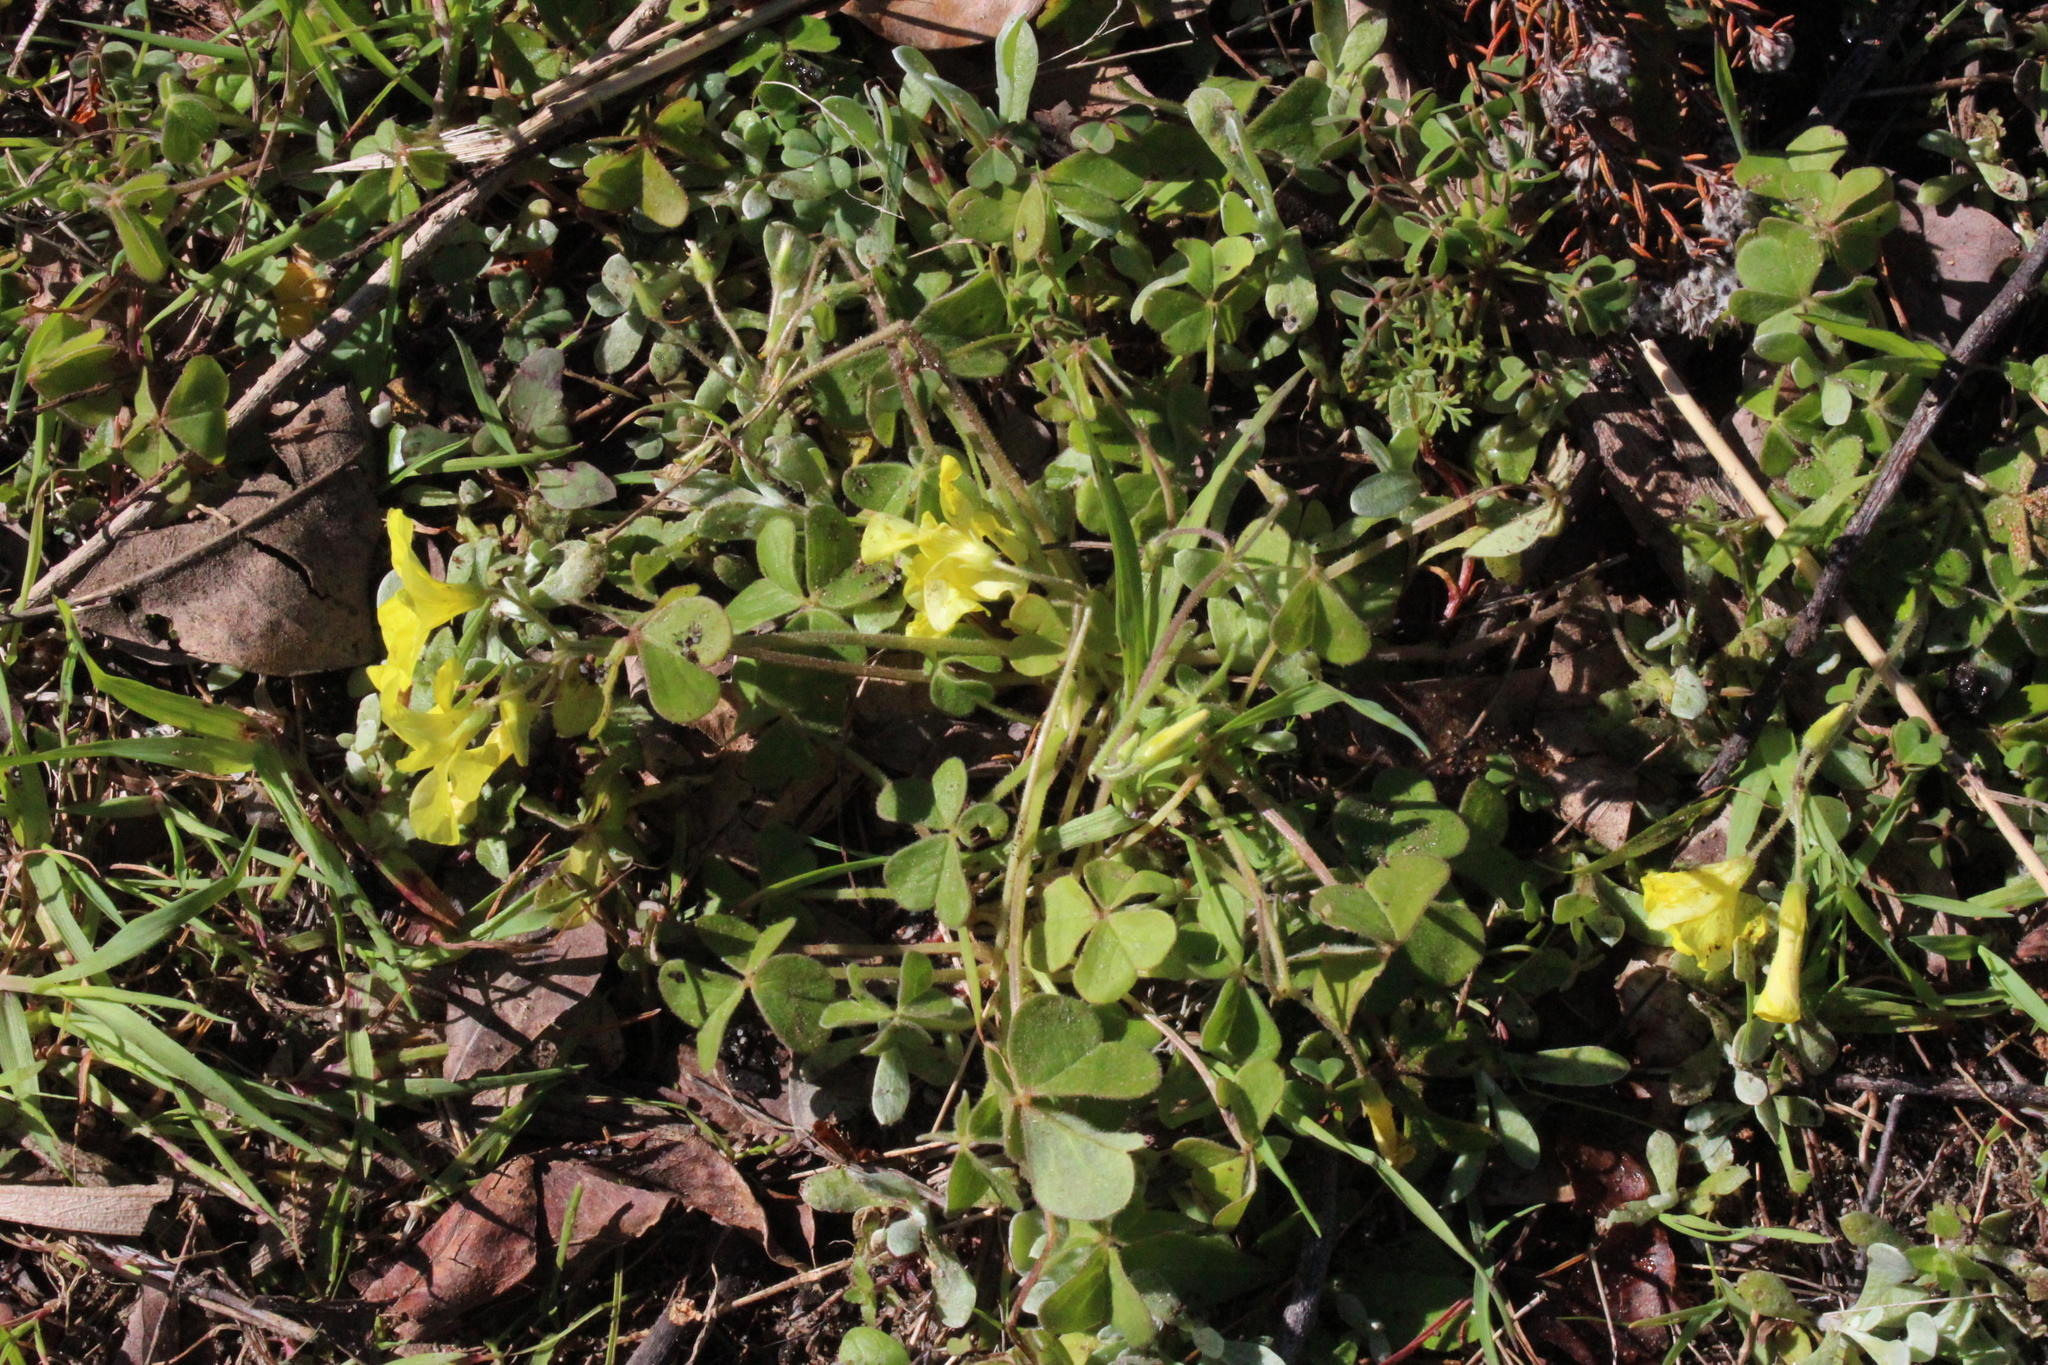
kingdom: Plantae
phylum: Tracheophyta
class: Magnoliopsida
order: Oxalidales
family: Oxalidaceae
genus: Oxalis
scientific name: Oxalis compressa
